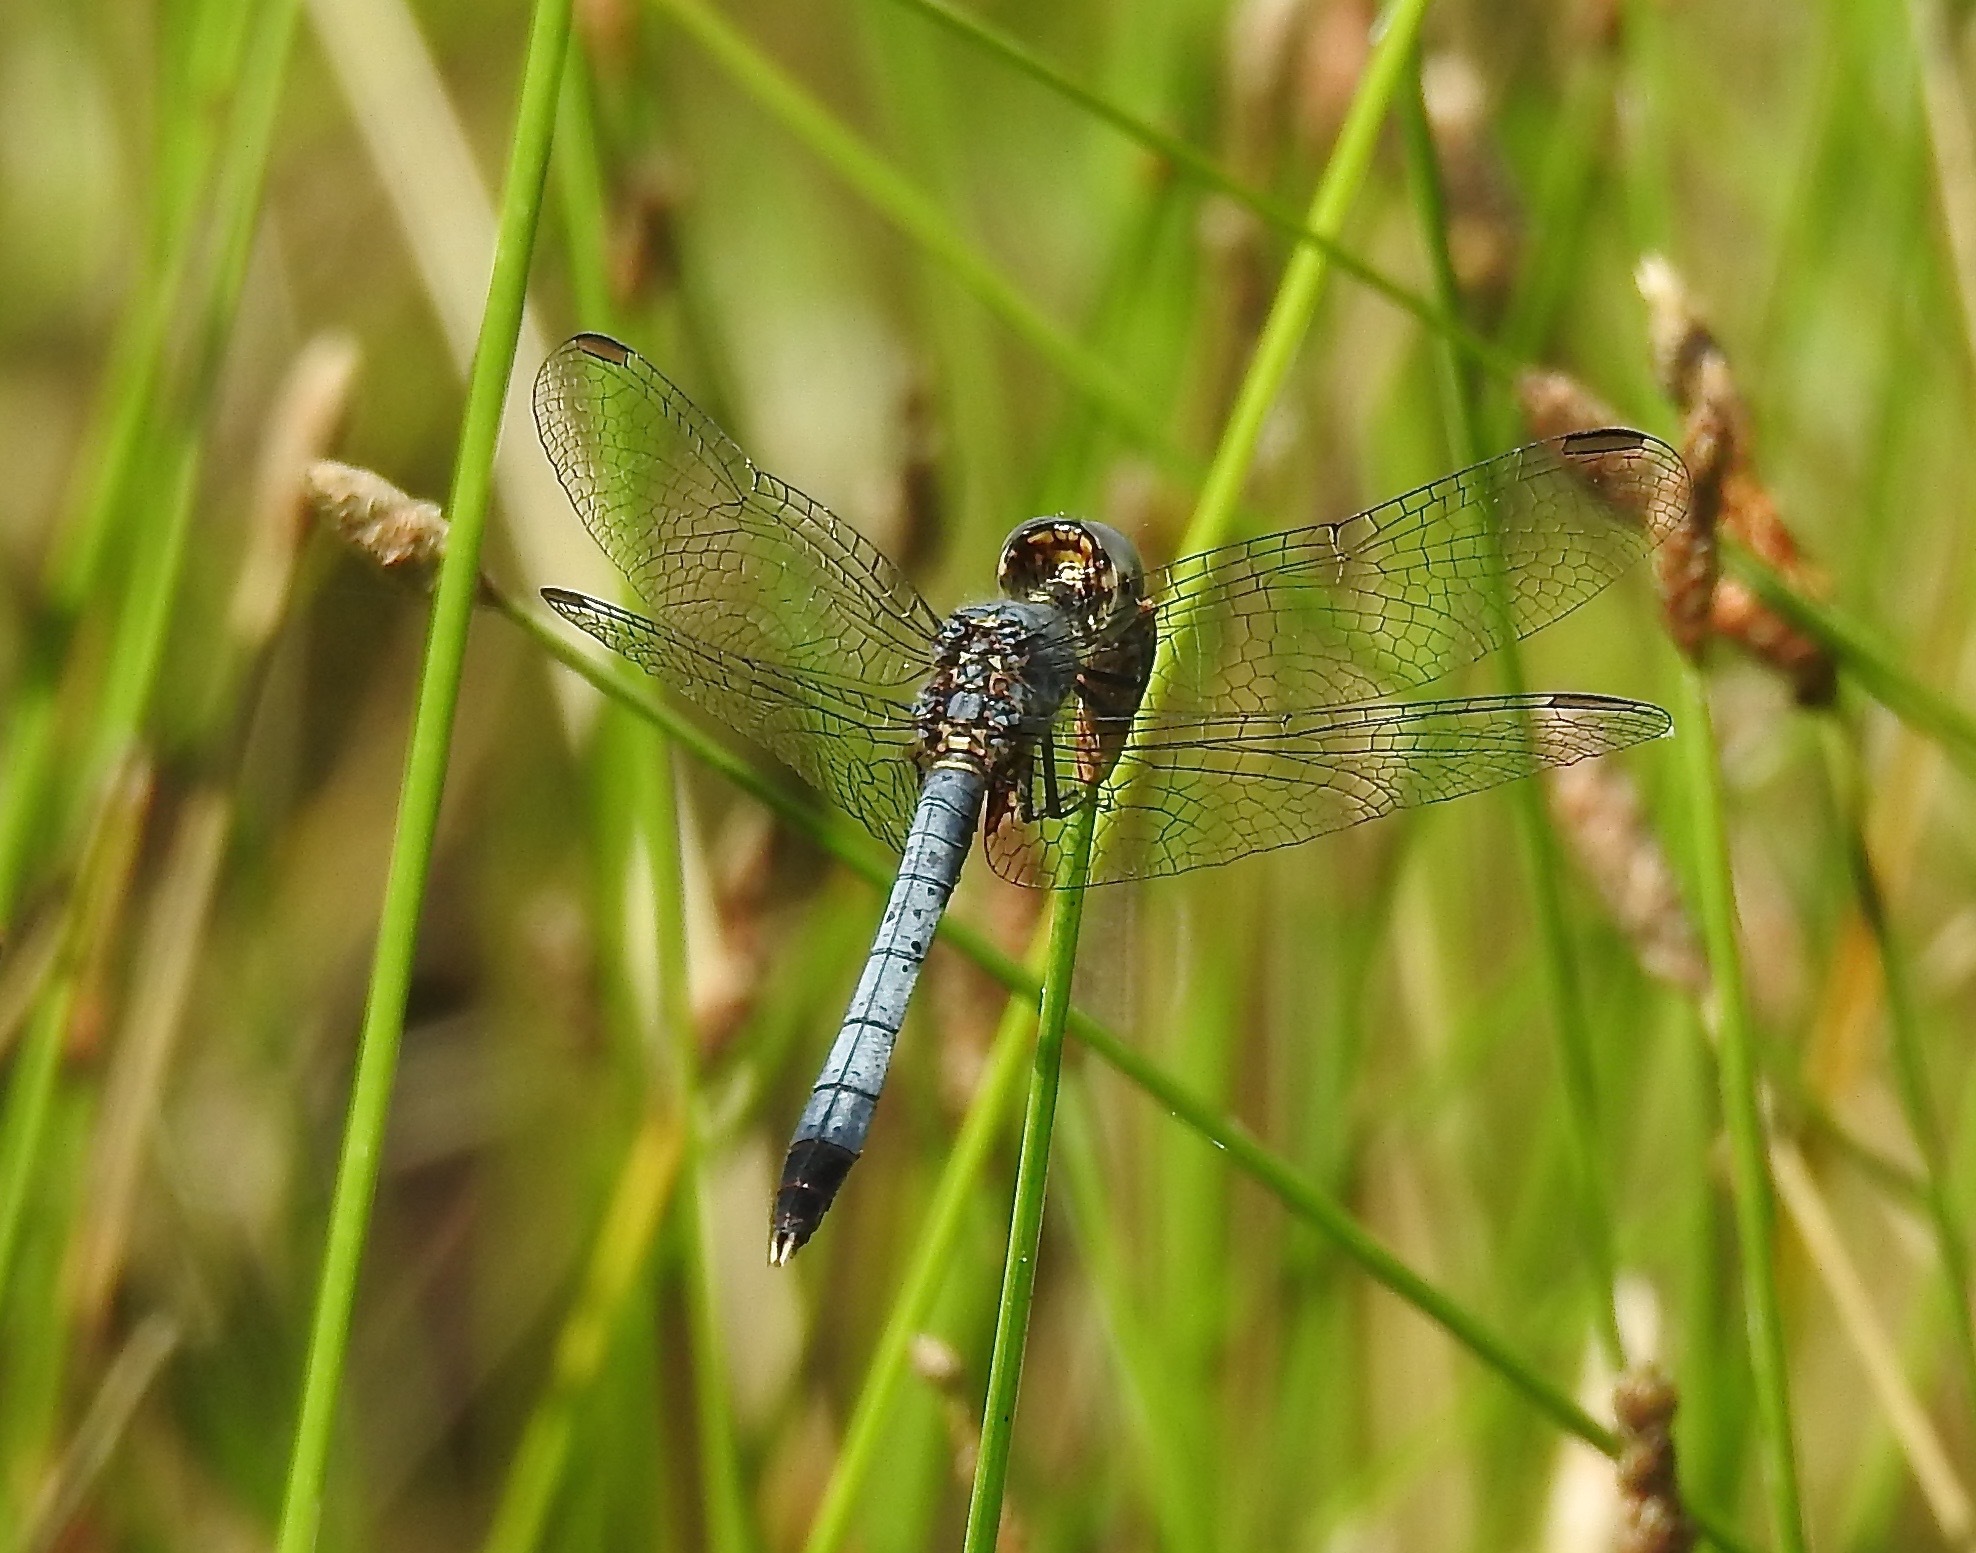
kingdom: Animalia
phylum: Arthropoda
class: Insecta
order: Odonata
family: Libellulidae
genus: Erythrodiplax
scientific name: Erythrodiplax minuscula
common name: Little blue dragonlet
